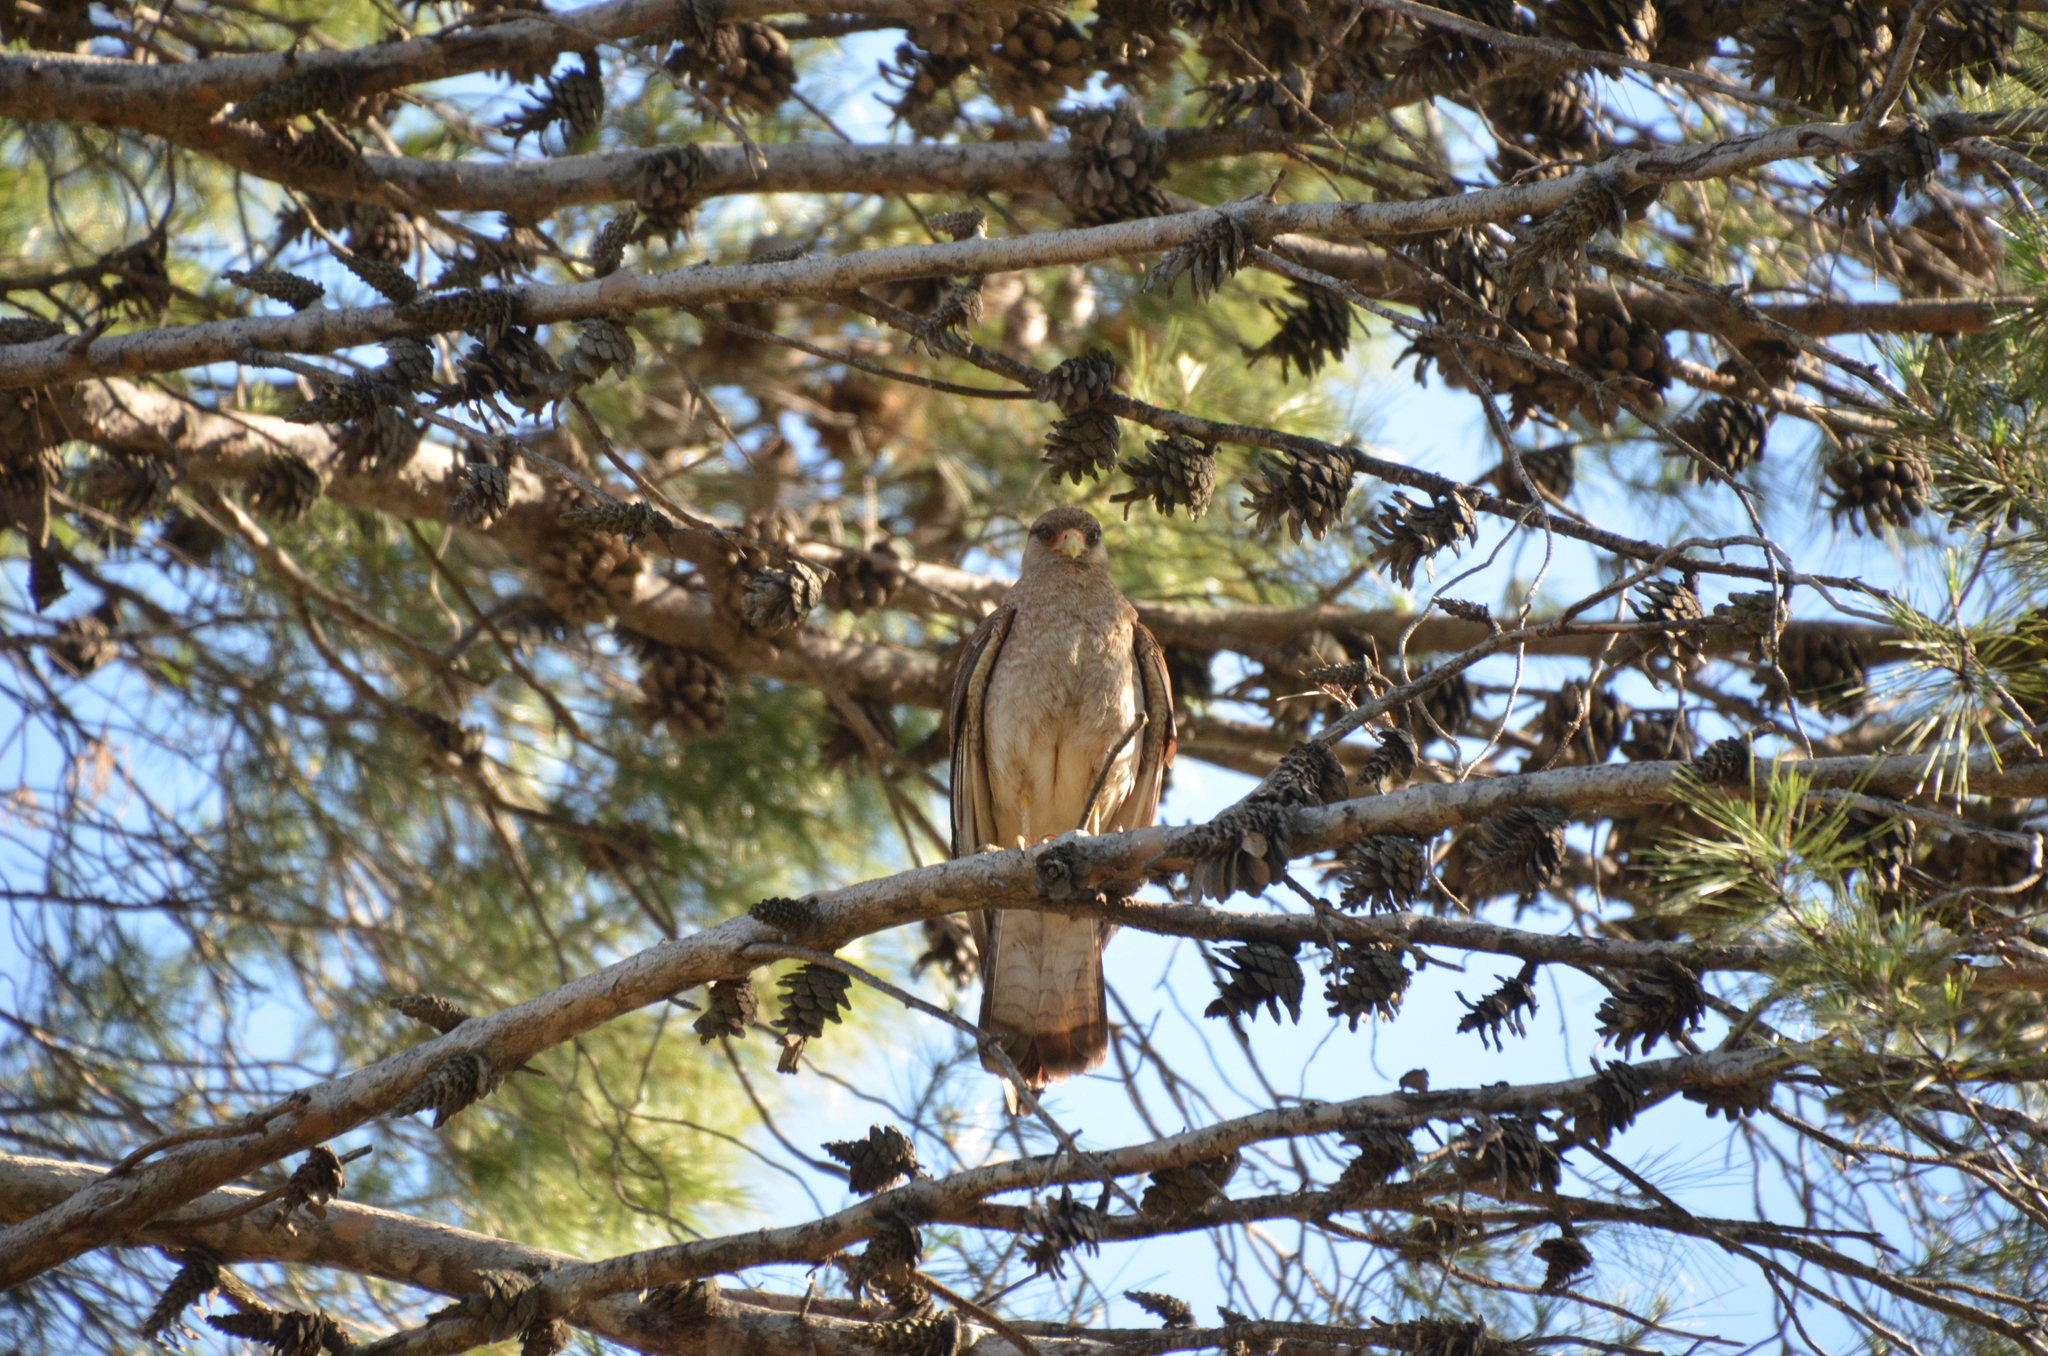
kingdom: Animalia
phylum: Chordata
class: Aves
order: Falconiformes
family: Falconidae
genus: Daptrius
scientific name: Daptrius
